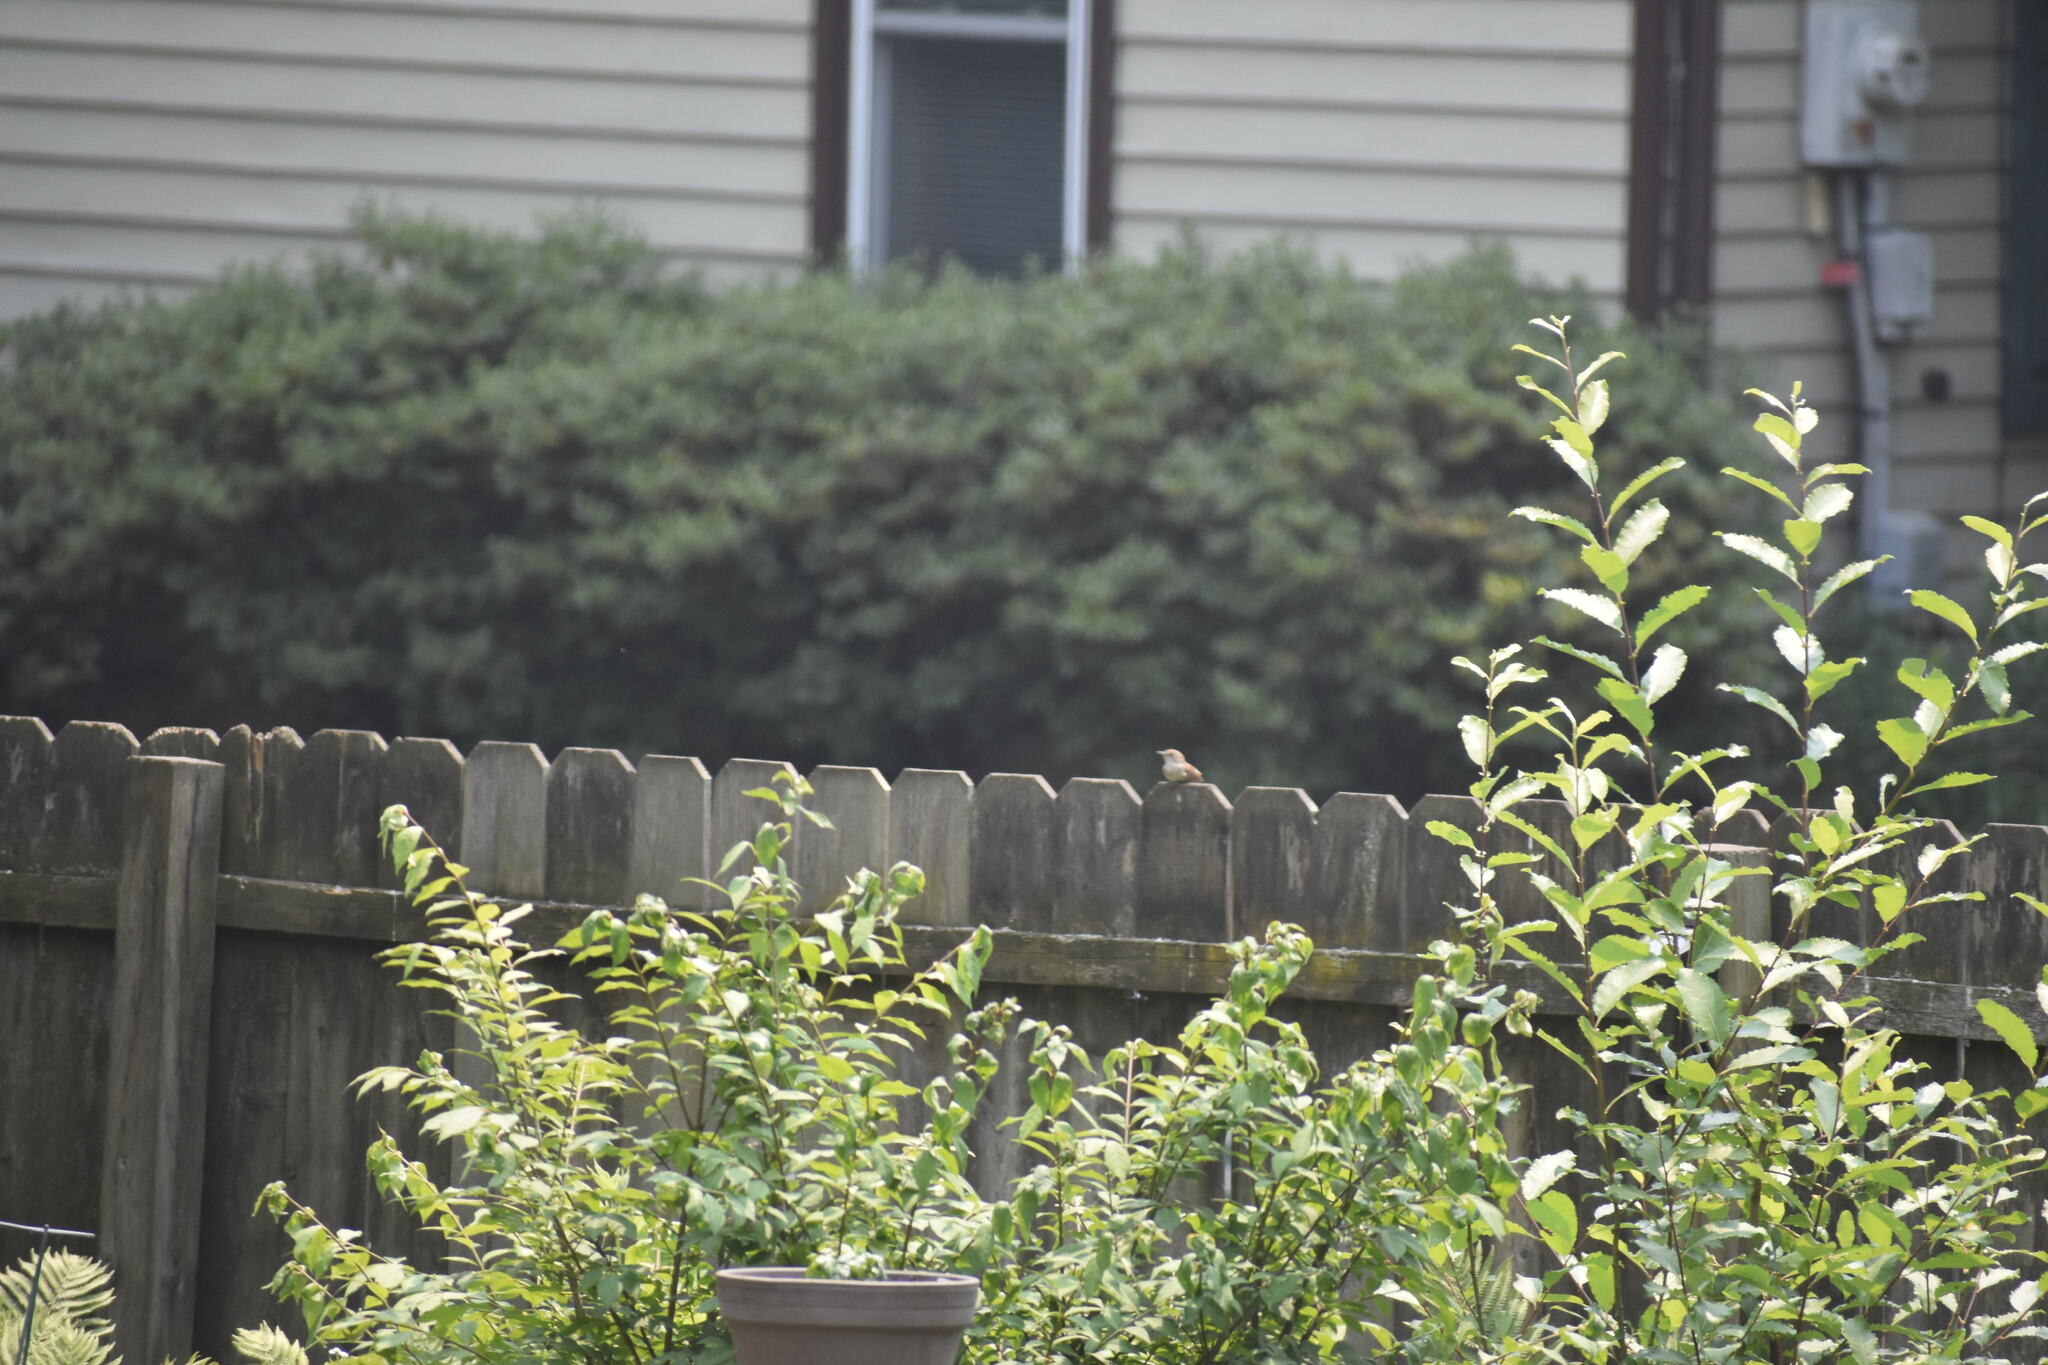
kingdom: Animalia
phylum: Chordata
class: Aves
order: Passeriformes
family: Troglodytidae
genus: Troglodytes
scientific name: Troglodytes aedon
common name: House wren
